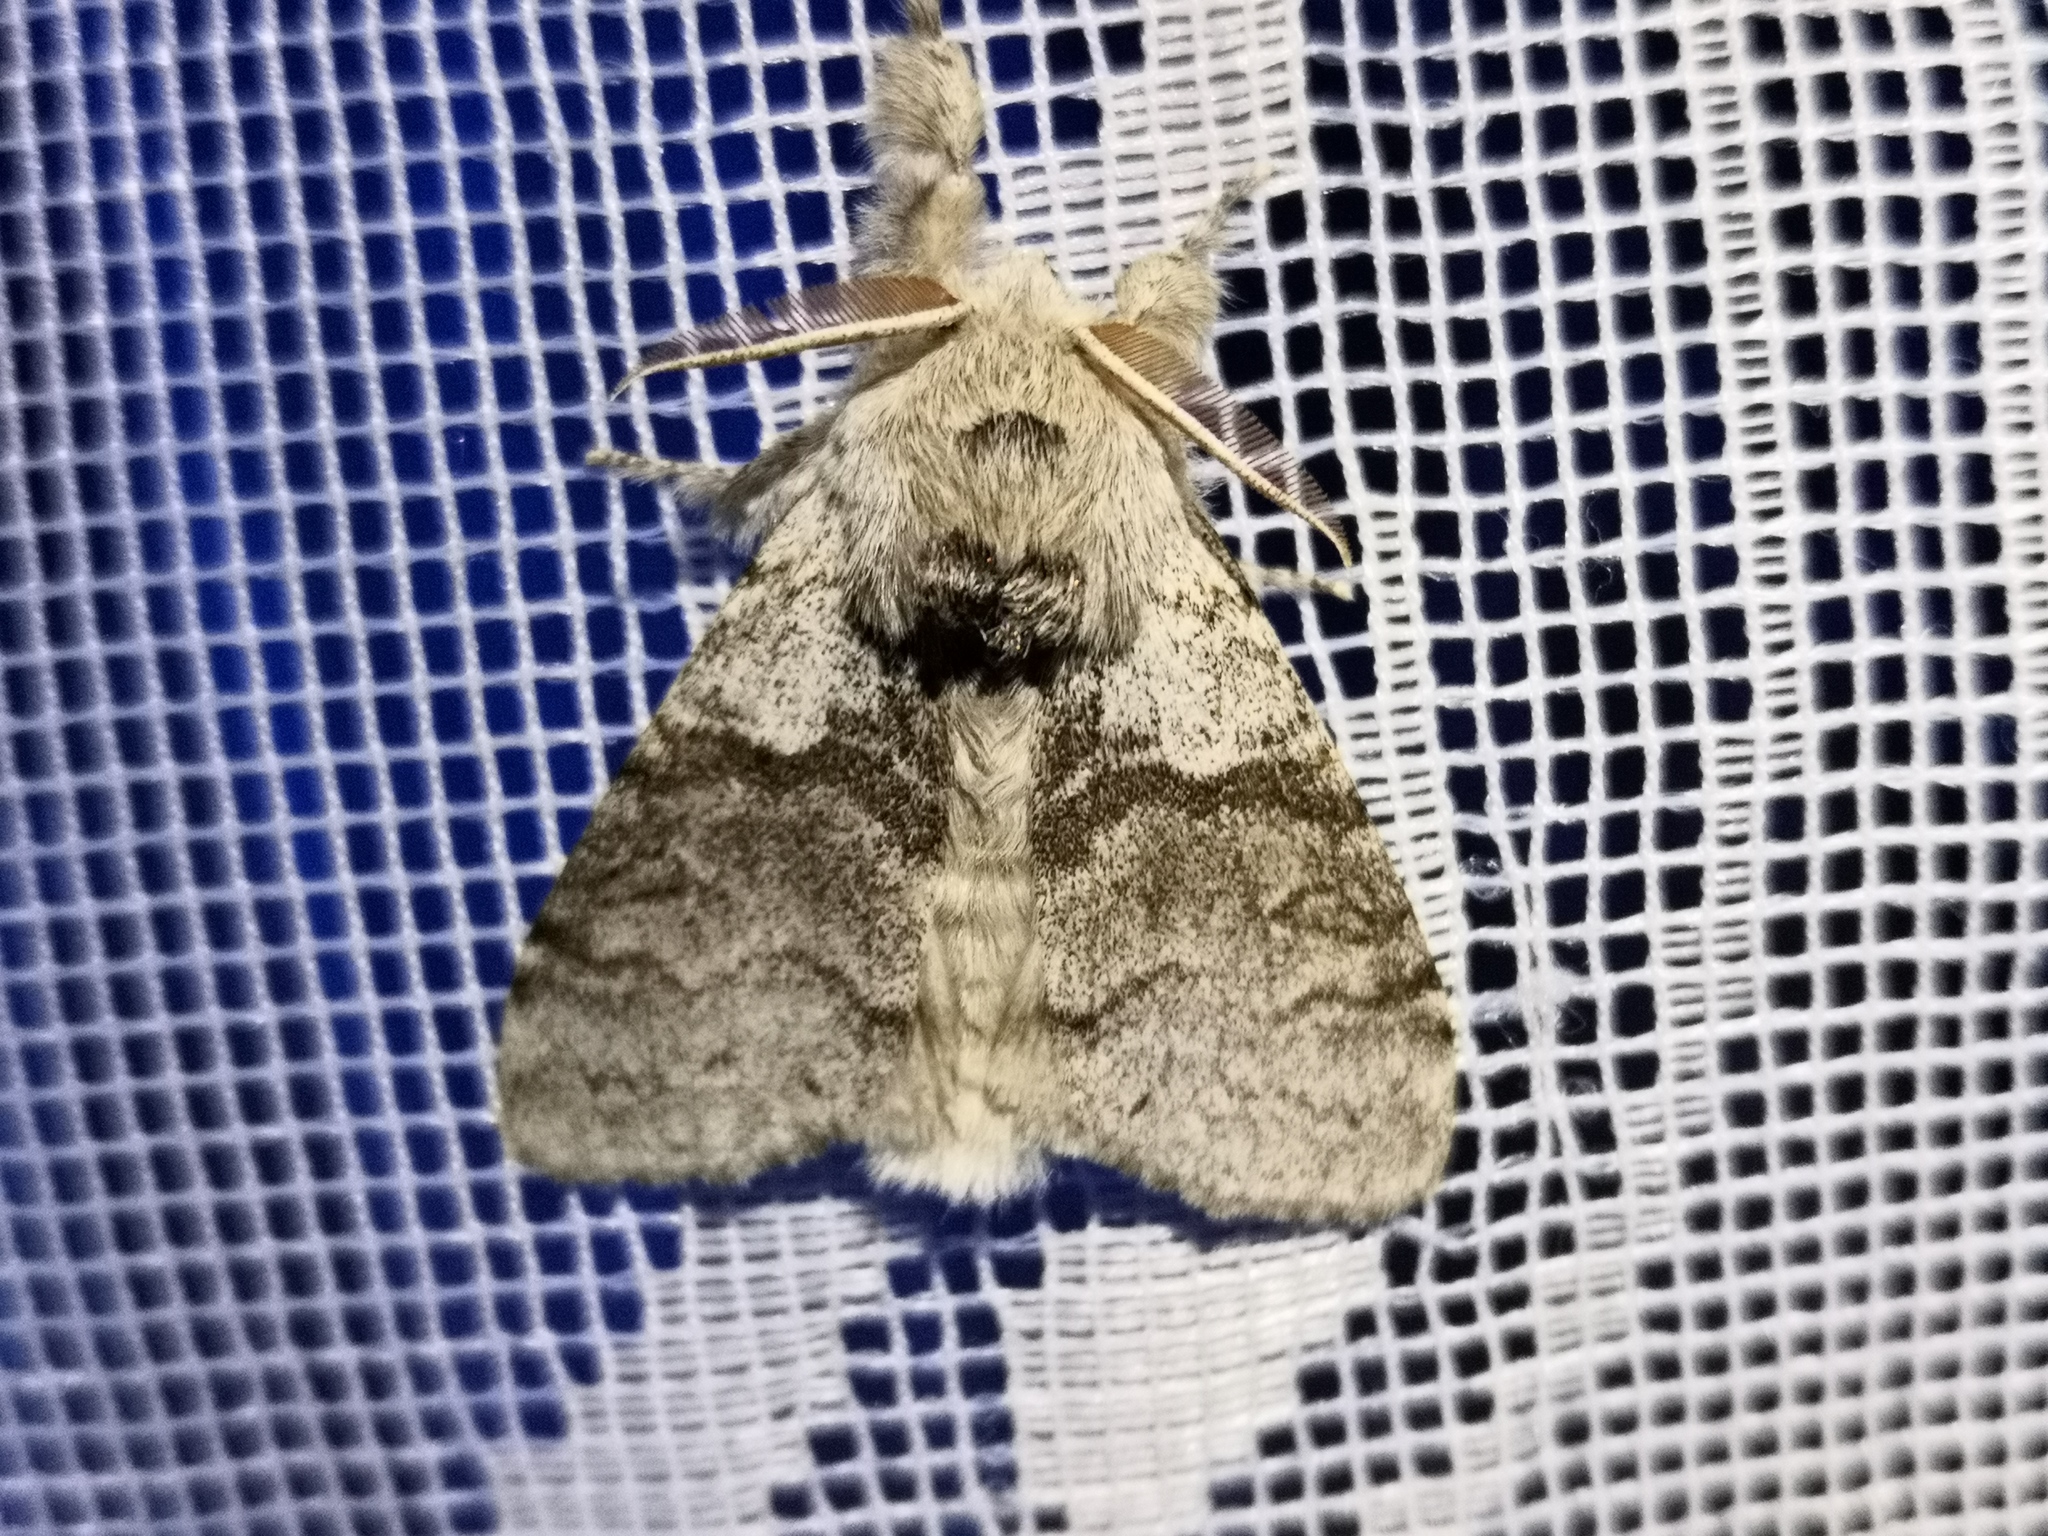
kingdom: Animalia
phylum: Arthropoda
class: Insecta
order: Lepidoptera
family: Erebidae
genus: Calliteara
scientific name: Calliteara pudibunda
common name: Pale tussock
